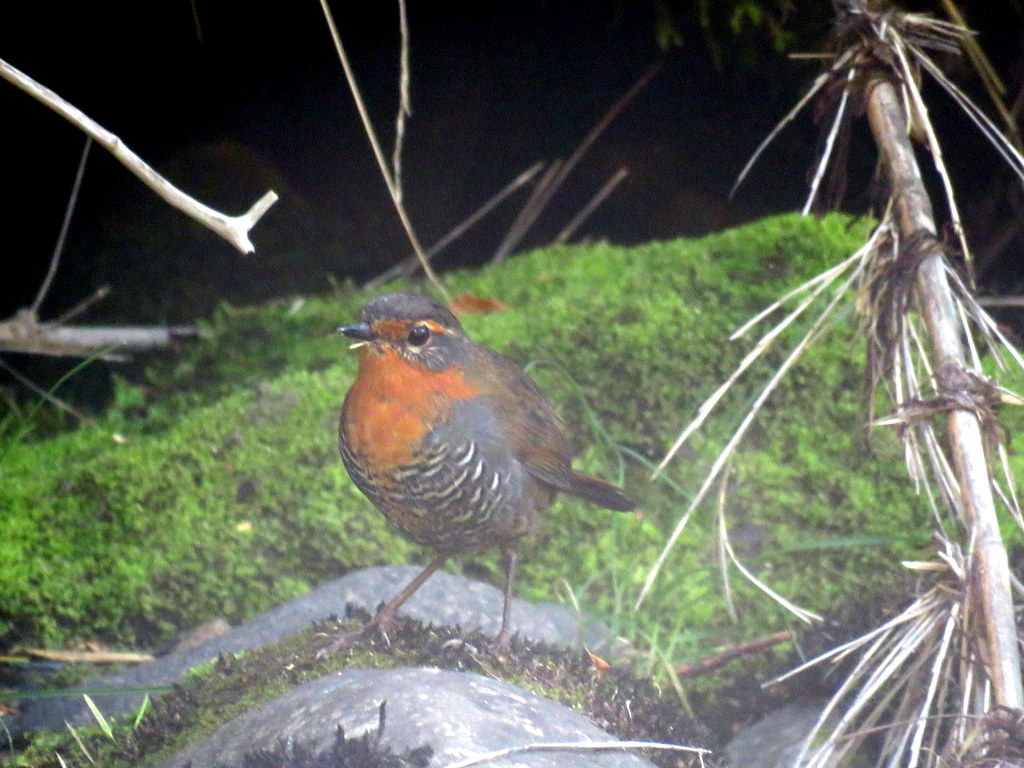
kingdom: Animalia
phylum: Chordata
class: Aves
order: Passeriformes
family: Rhinocryptidae
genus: Scelorchilus
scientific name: Scelorchilus rubecula
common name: Chucao tapaculo
